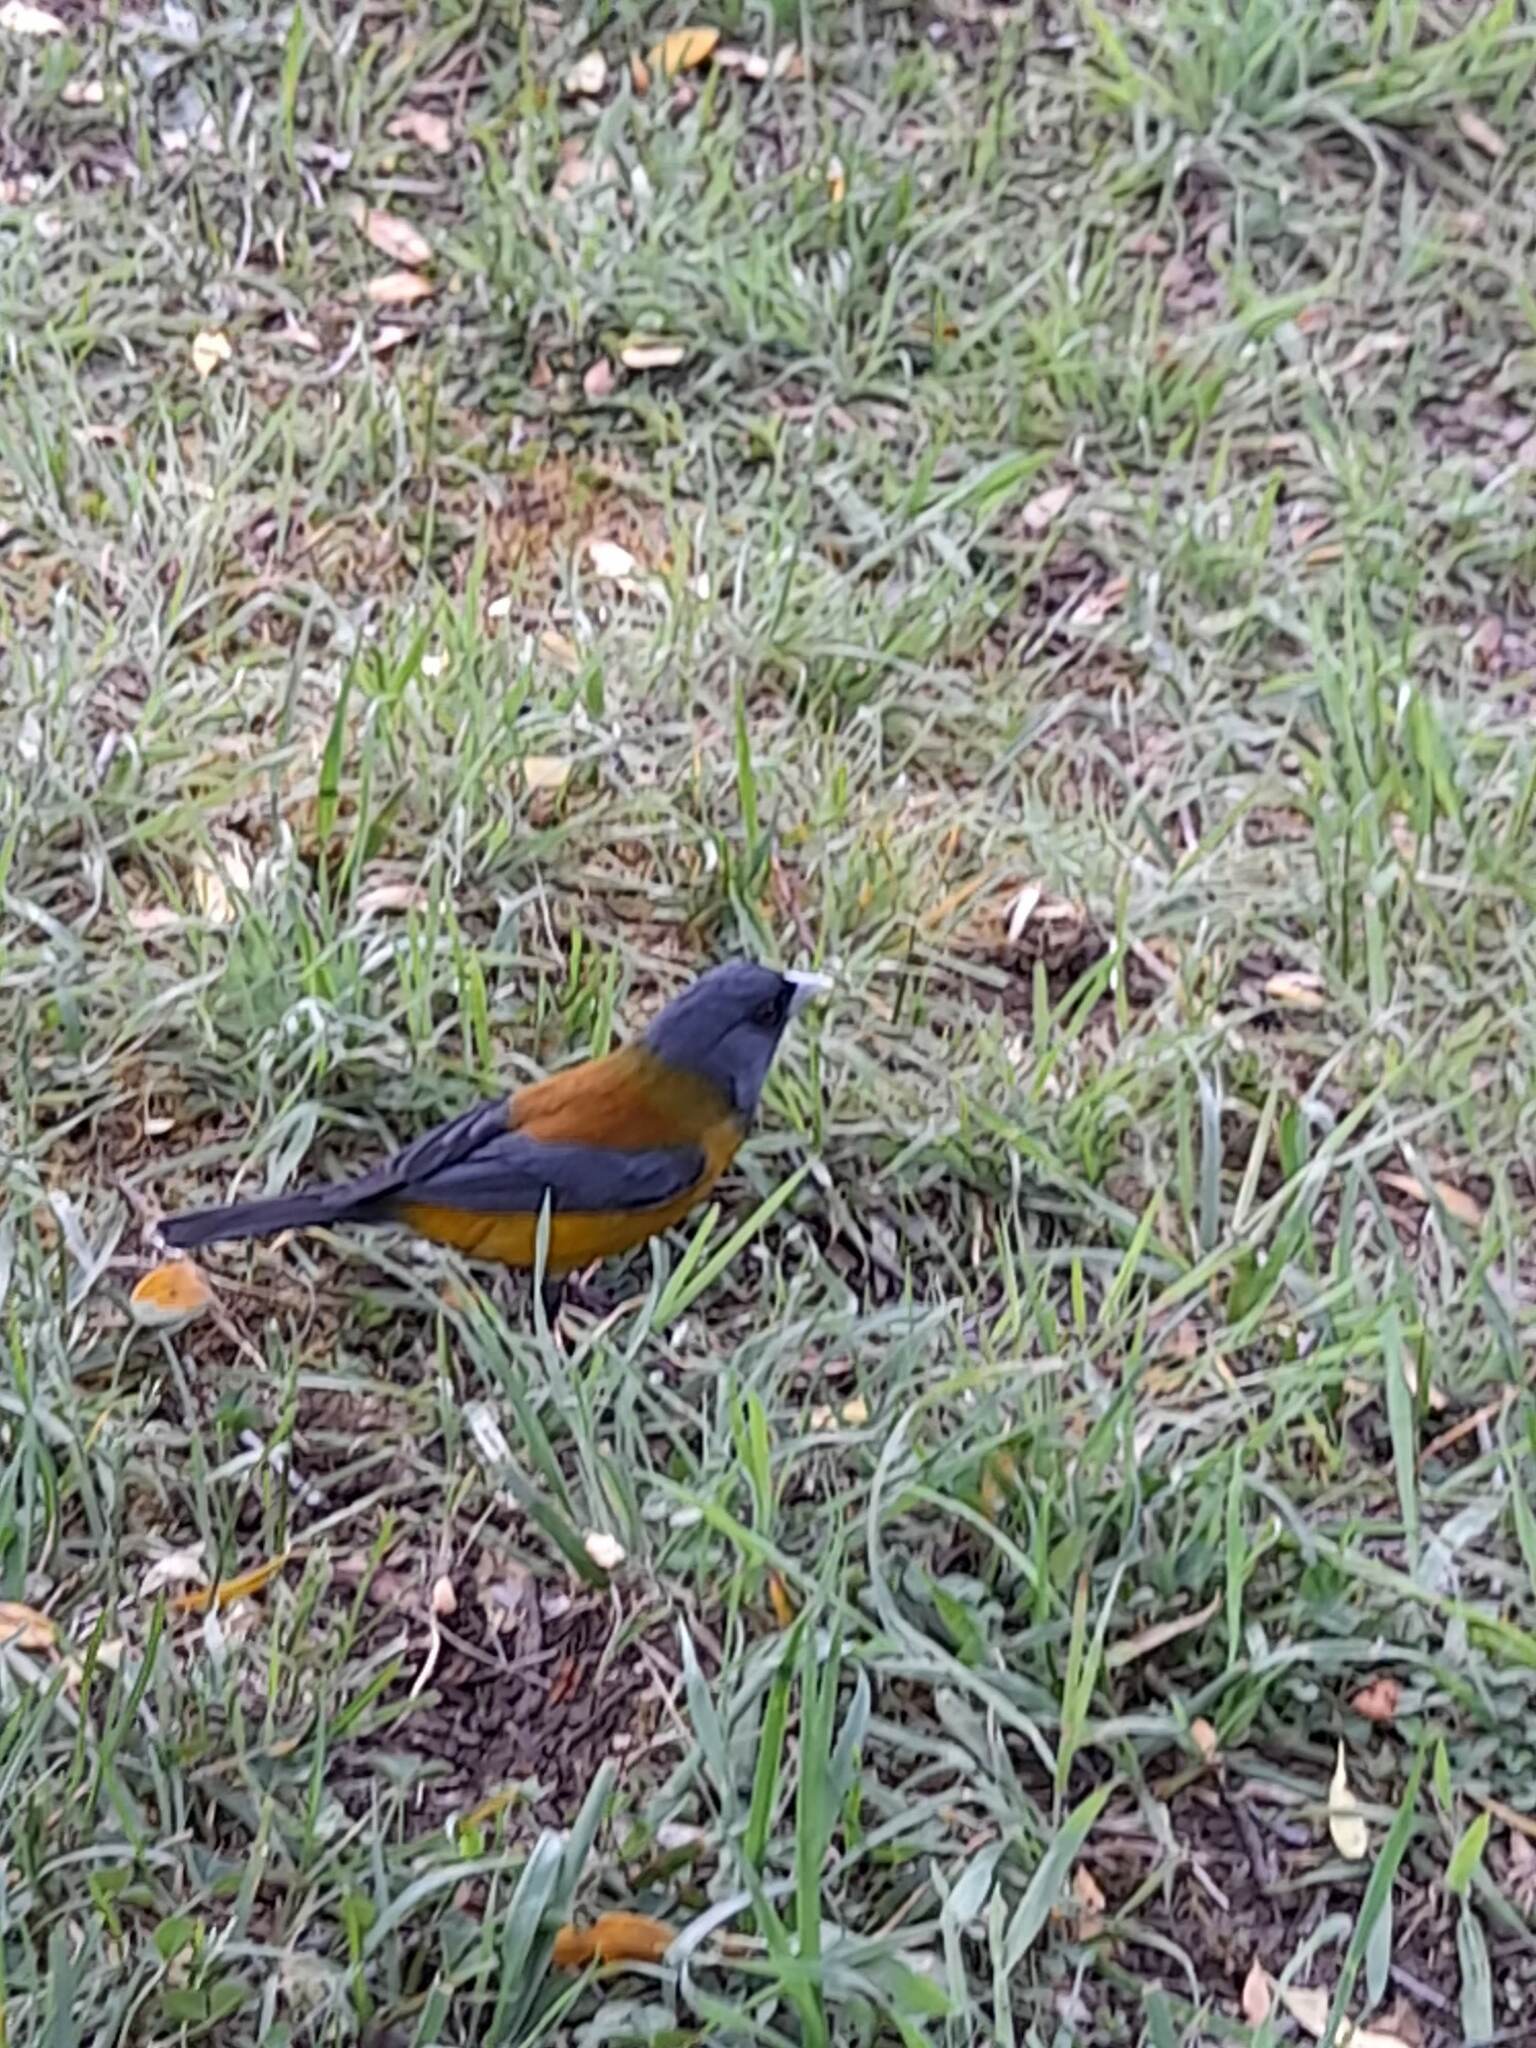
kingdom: Animalia
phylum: Chordata
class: Aves
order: Passeriformes
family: Thraupidae
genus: Phrygilus
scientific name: Phrygilus patagonicus
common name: Patagonian sierra finch
